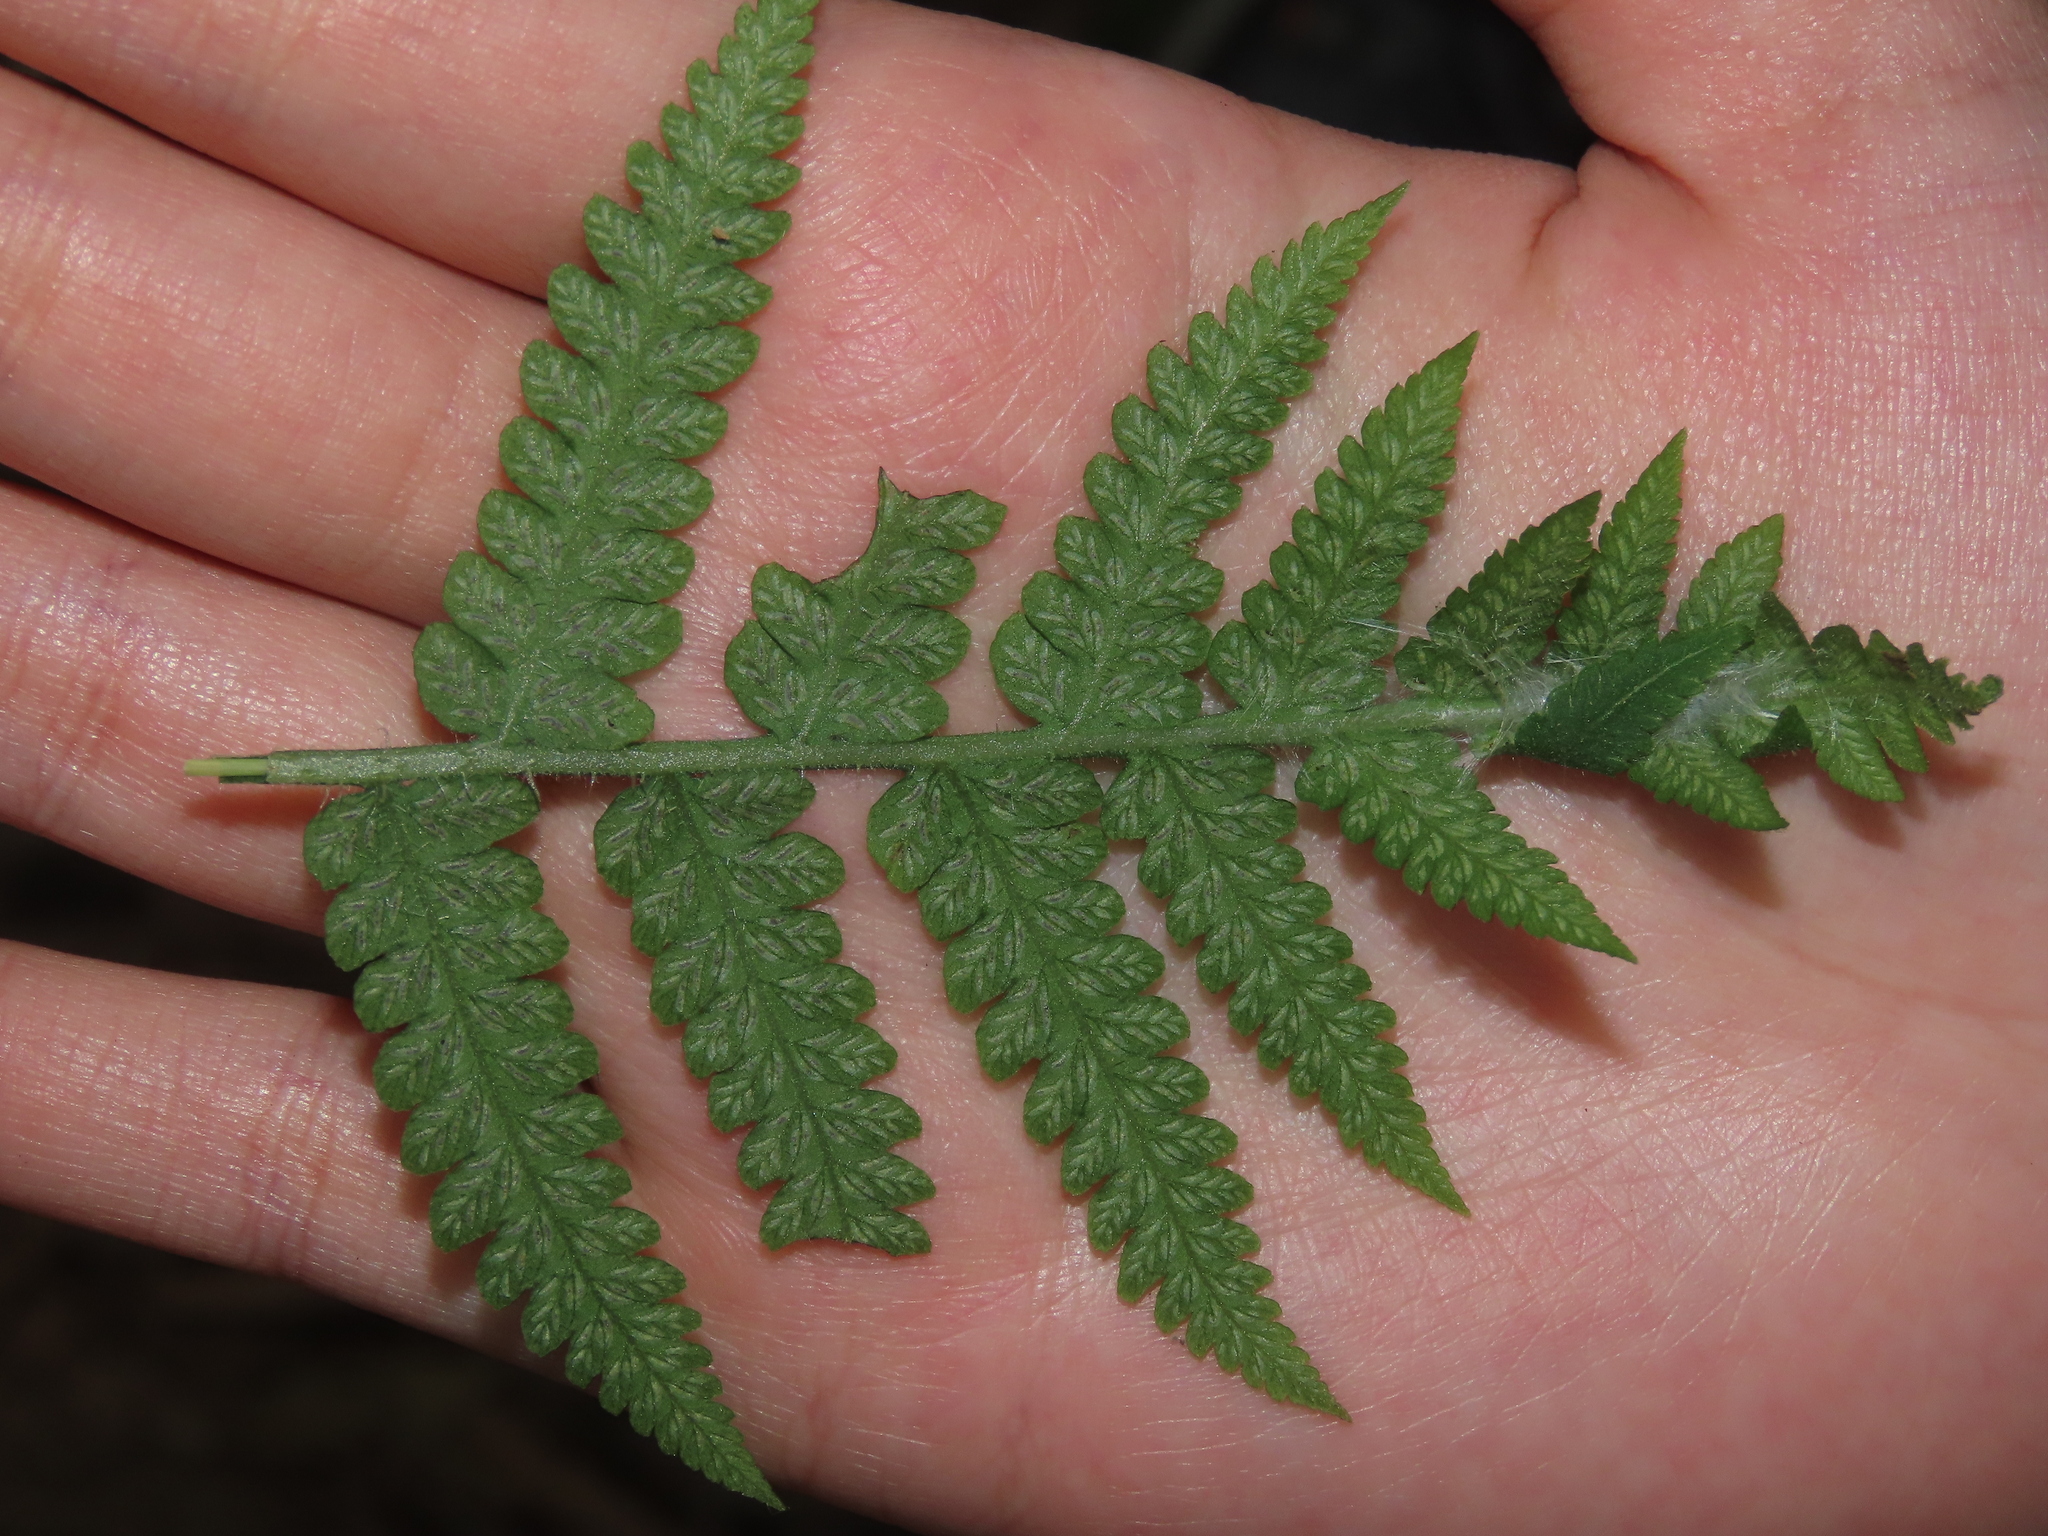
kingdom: Plantae
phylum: Tracheophyta
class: Polypodiopsida
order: Polypodiales
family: Athyriaceae
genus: Deparia
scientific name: Deparia petersenii
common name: Japanese false spleenwort
